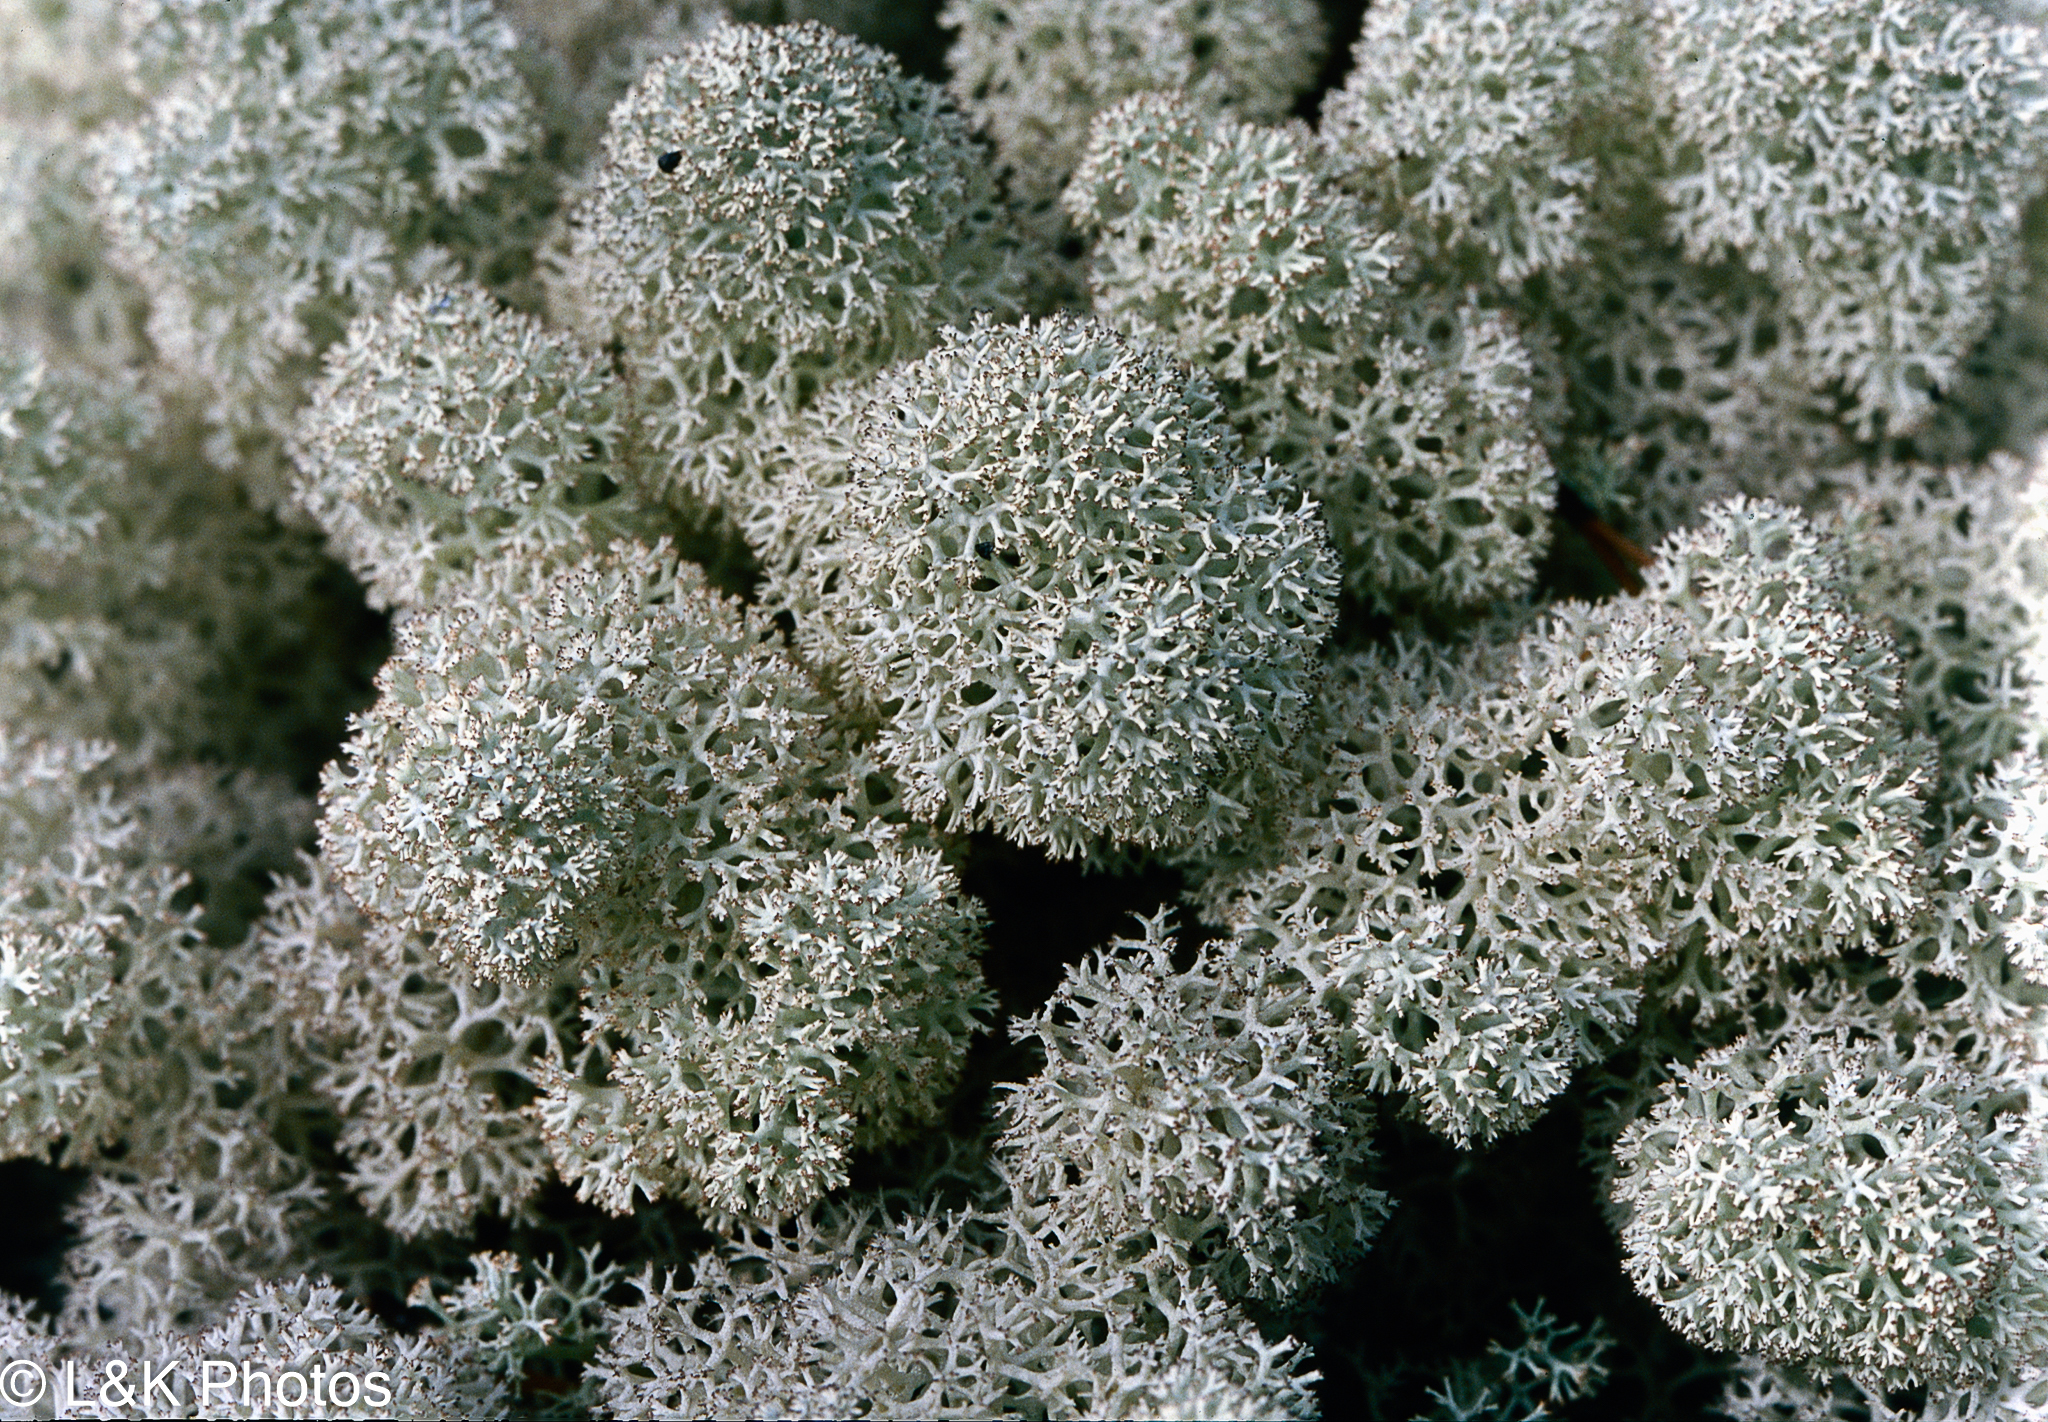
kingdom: Fungi
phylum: Ascomycota
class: Lecanoromycetes
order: Lecanorales
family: Cladoniaceae
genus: Cladonia
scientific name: Cladonia stellaris
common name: Star-tipped reindeer lichen
